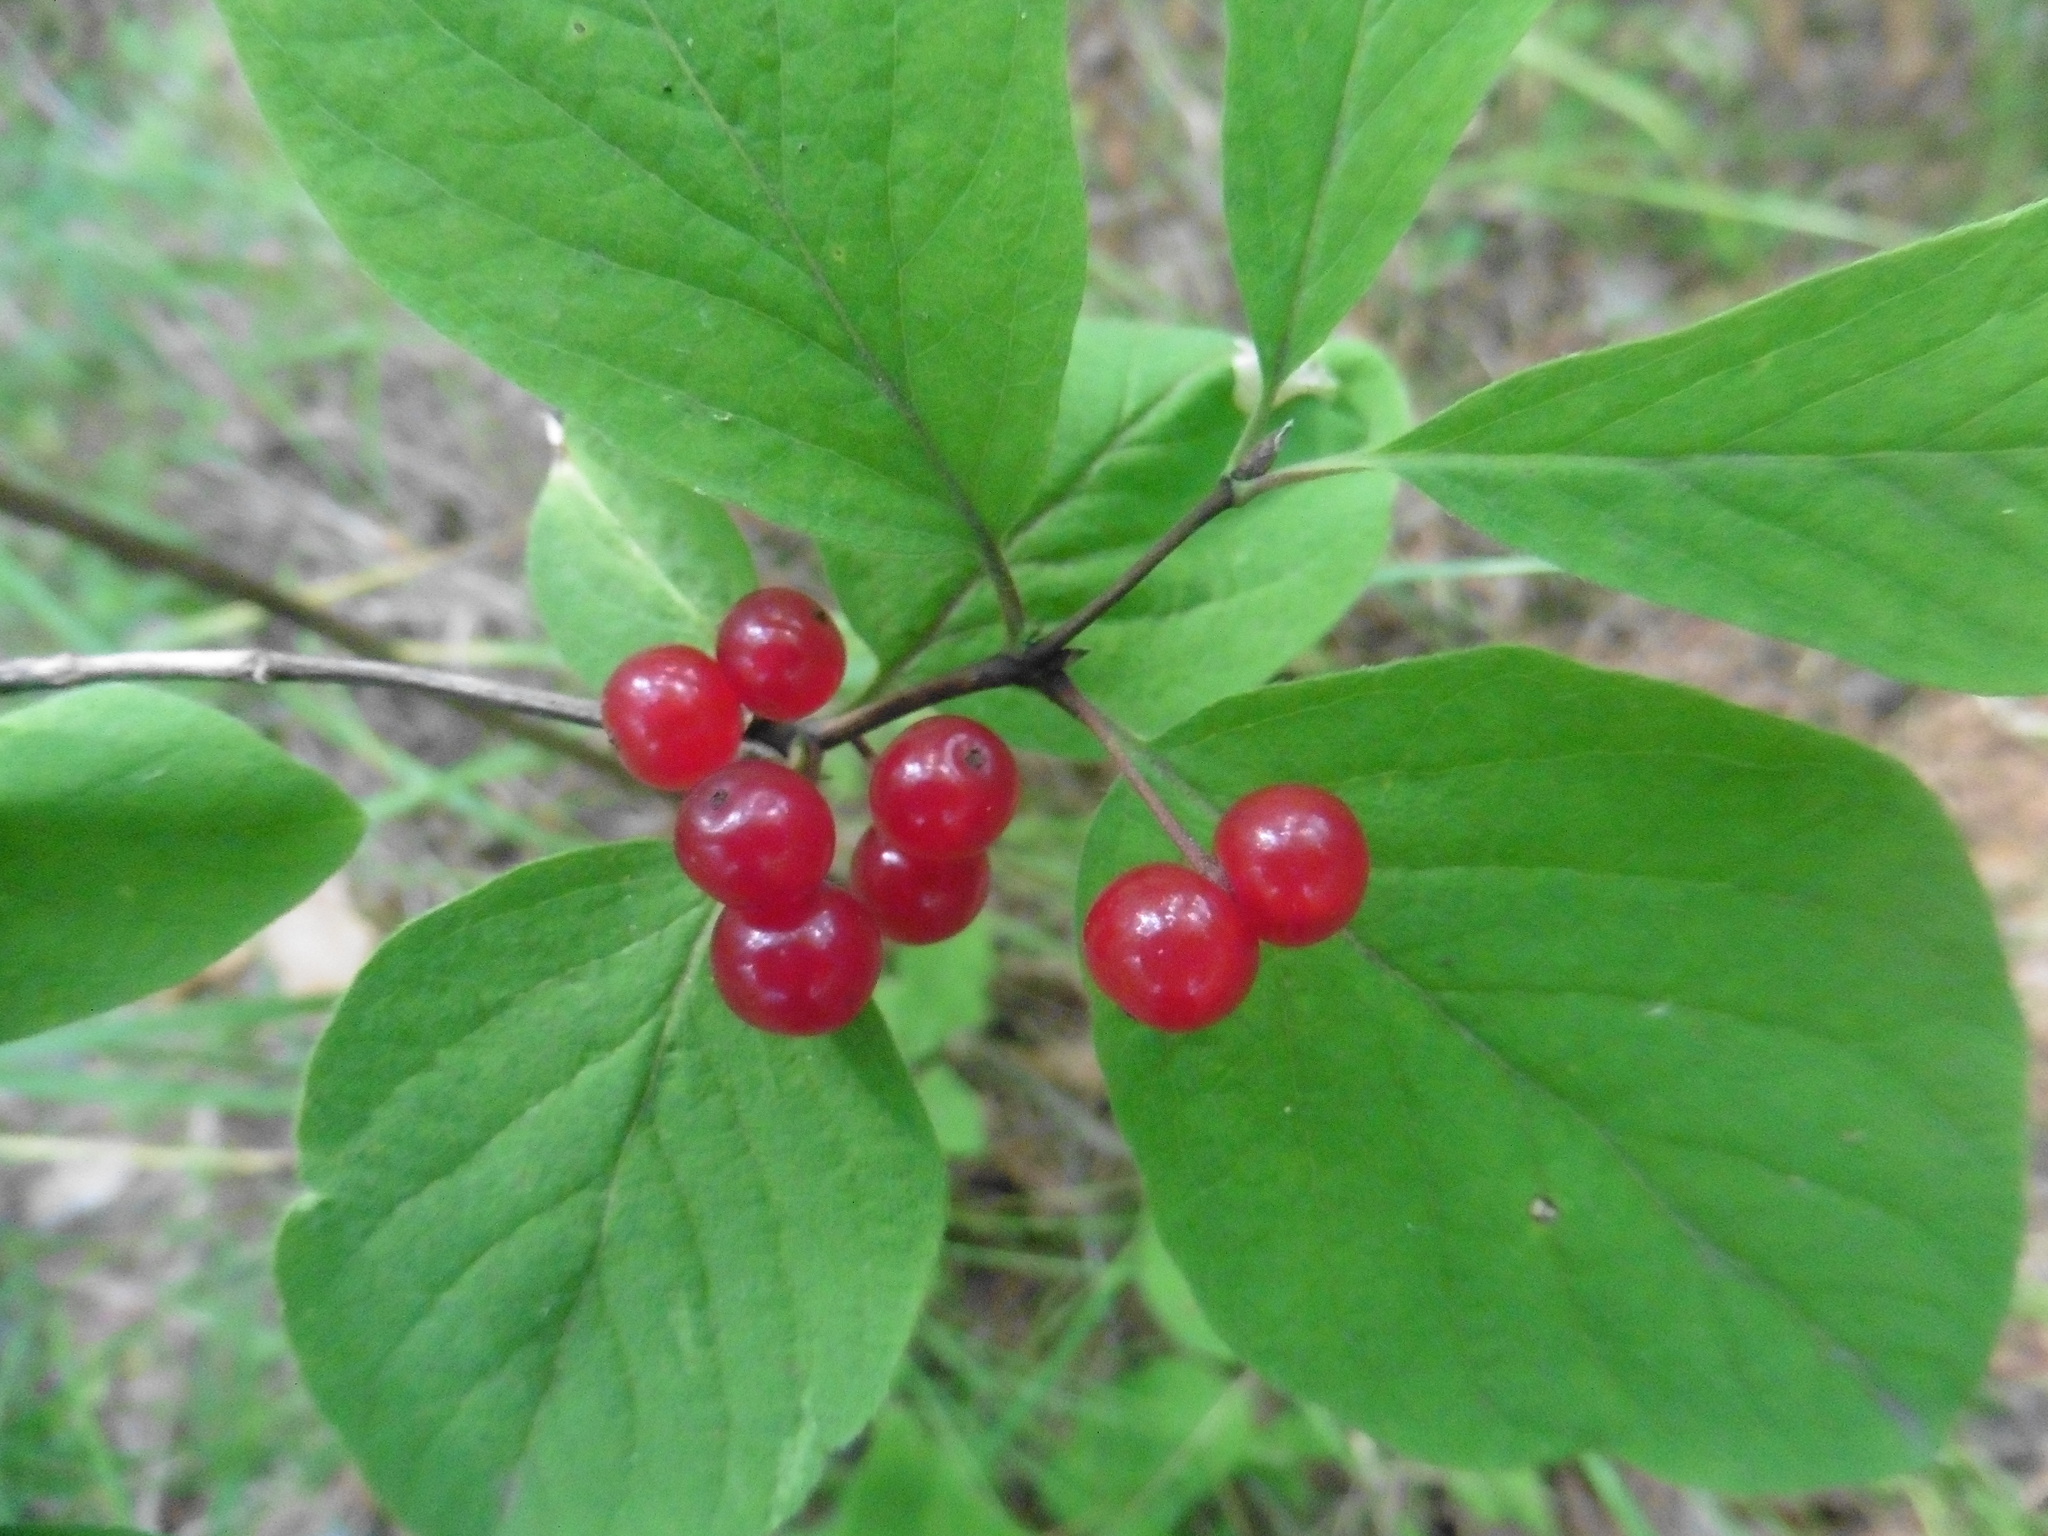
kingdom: Plantae
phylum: Tracheophyta
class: Magnoliopsida
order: Dipsacales
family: Caprifoliaceae
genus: Lonicera
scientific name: Lonicera xylosteum
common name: Fly honeysuckle
